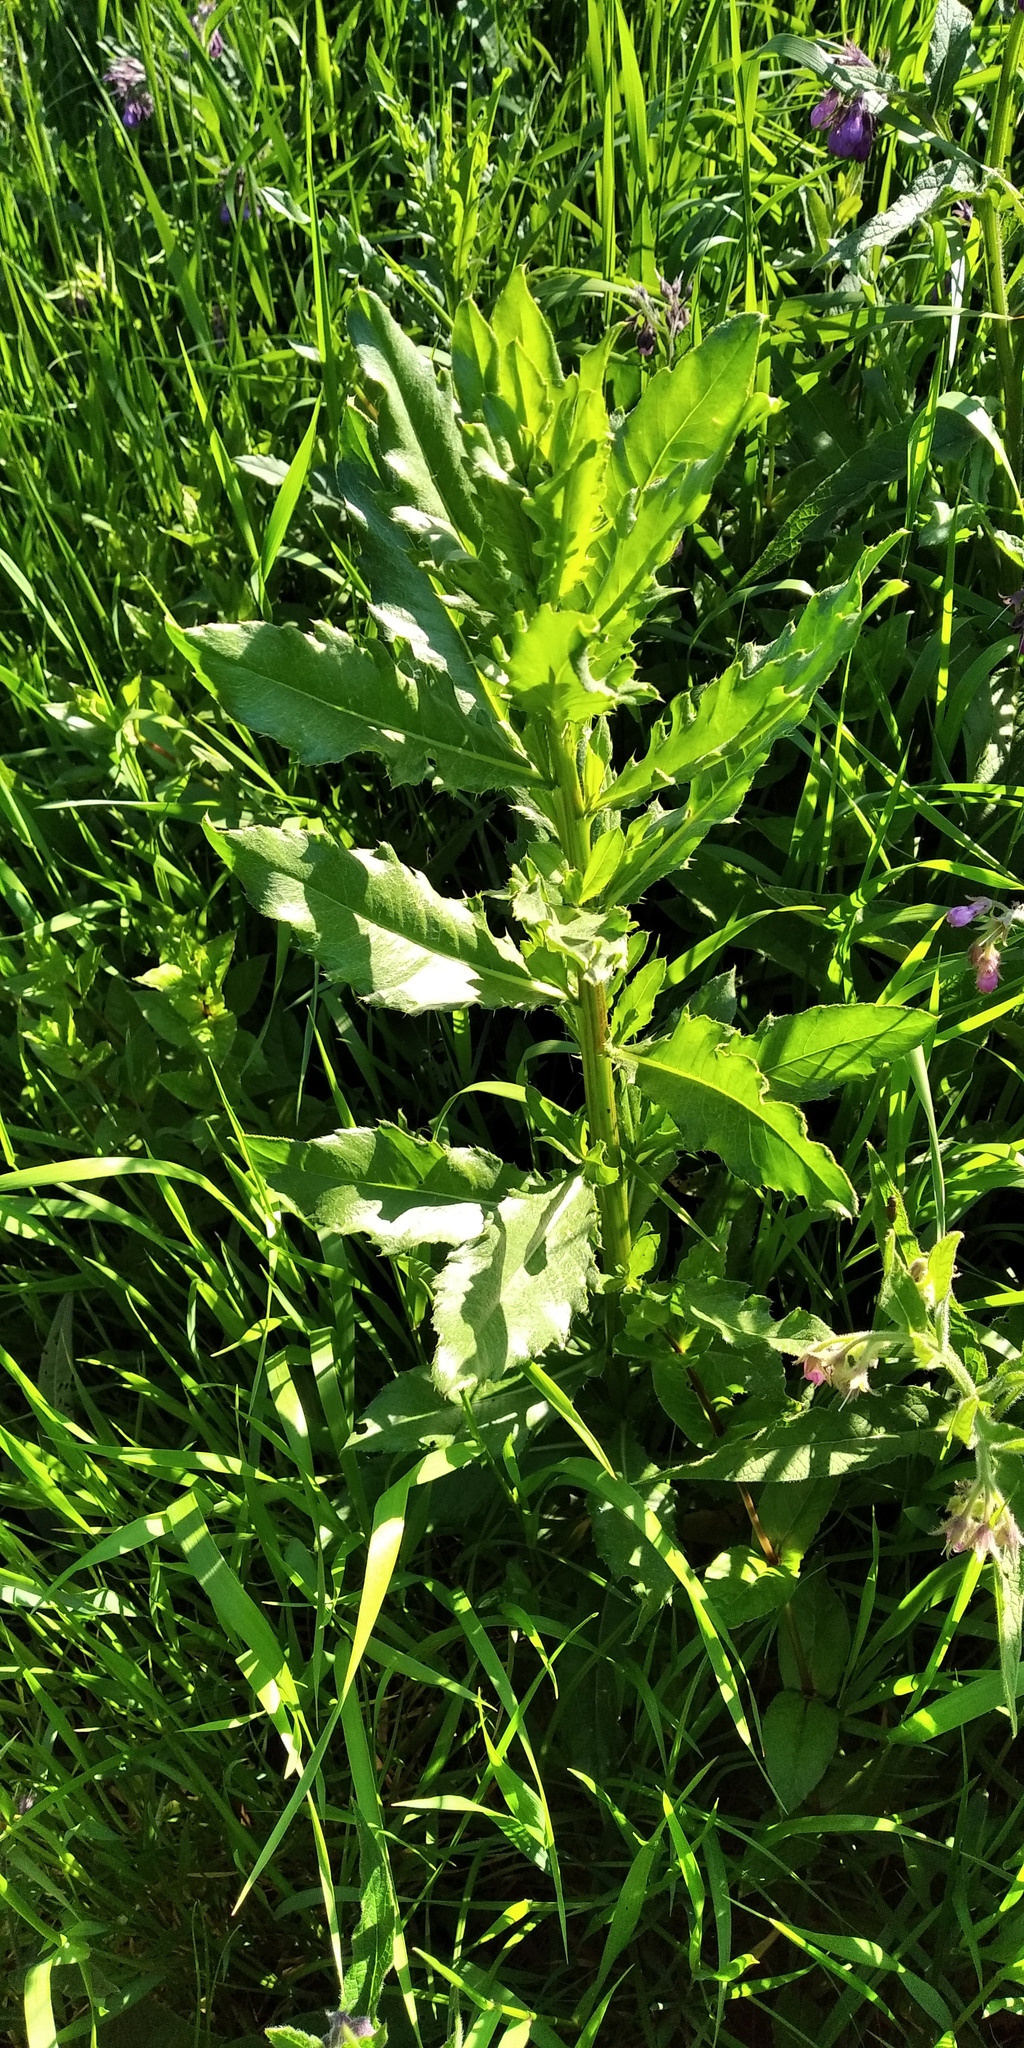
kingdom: Plantae
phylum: Tracheophyta
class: Magnoliopsida
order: Asterales
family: Asteraceae
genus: Cirsium
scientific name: Cirsium arvense
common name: Creeping thistle
